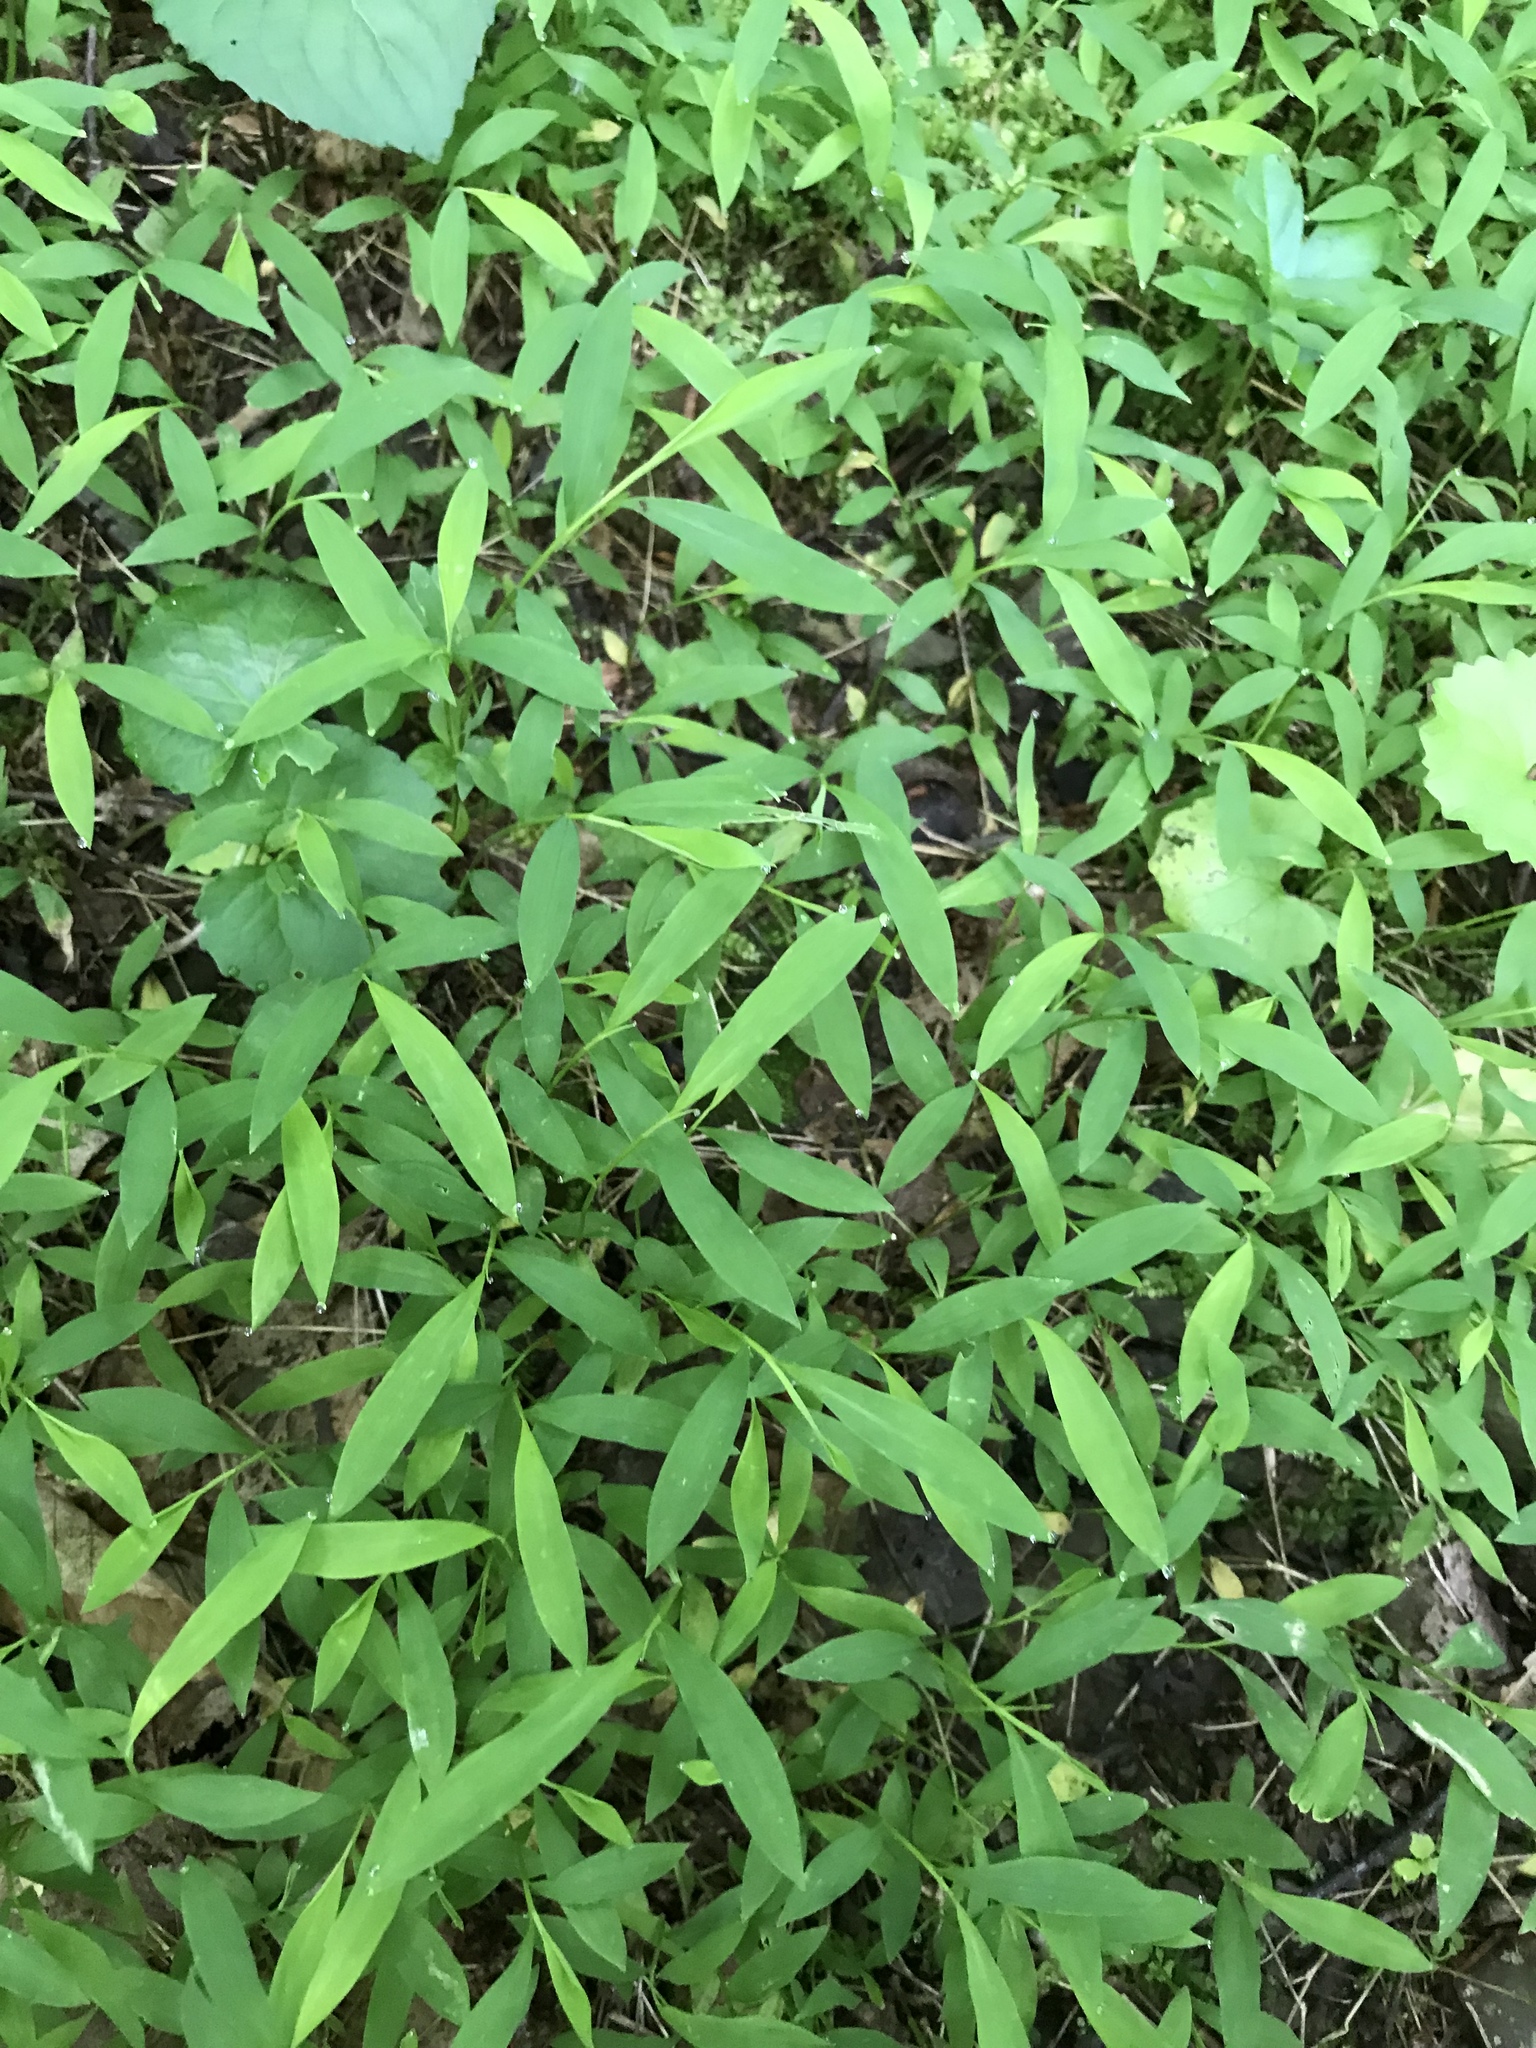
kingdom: Plantae
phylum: Tracheophyta
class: Liliopsida
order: Poales
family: Poaceae
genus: Microstegium
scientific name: Microstegium vimineum
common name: Japanese stiltgrass
